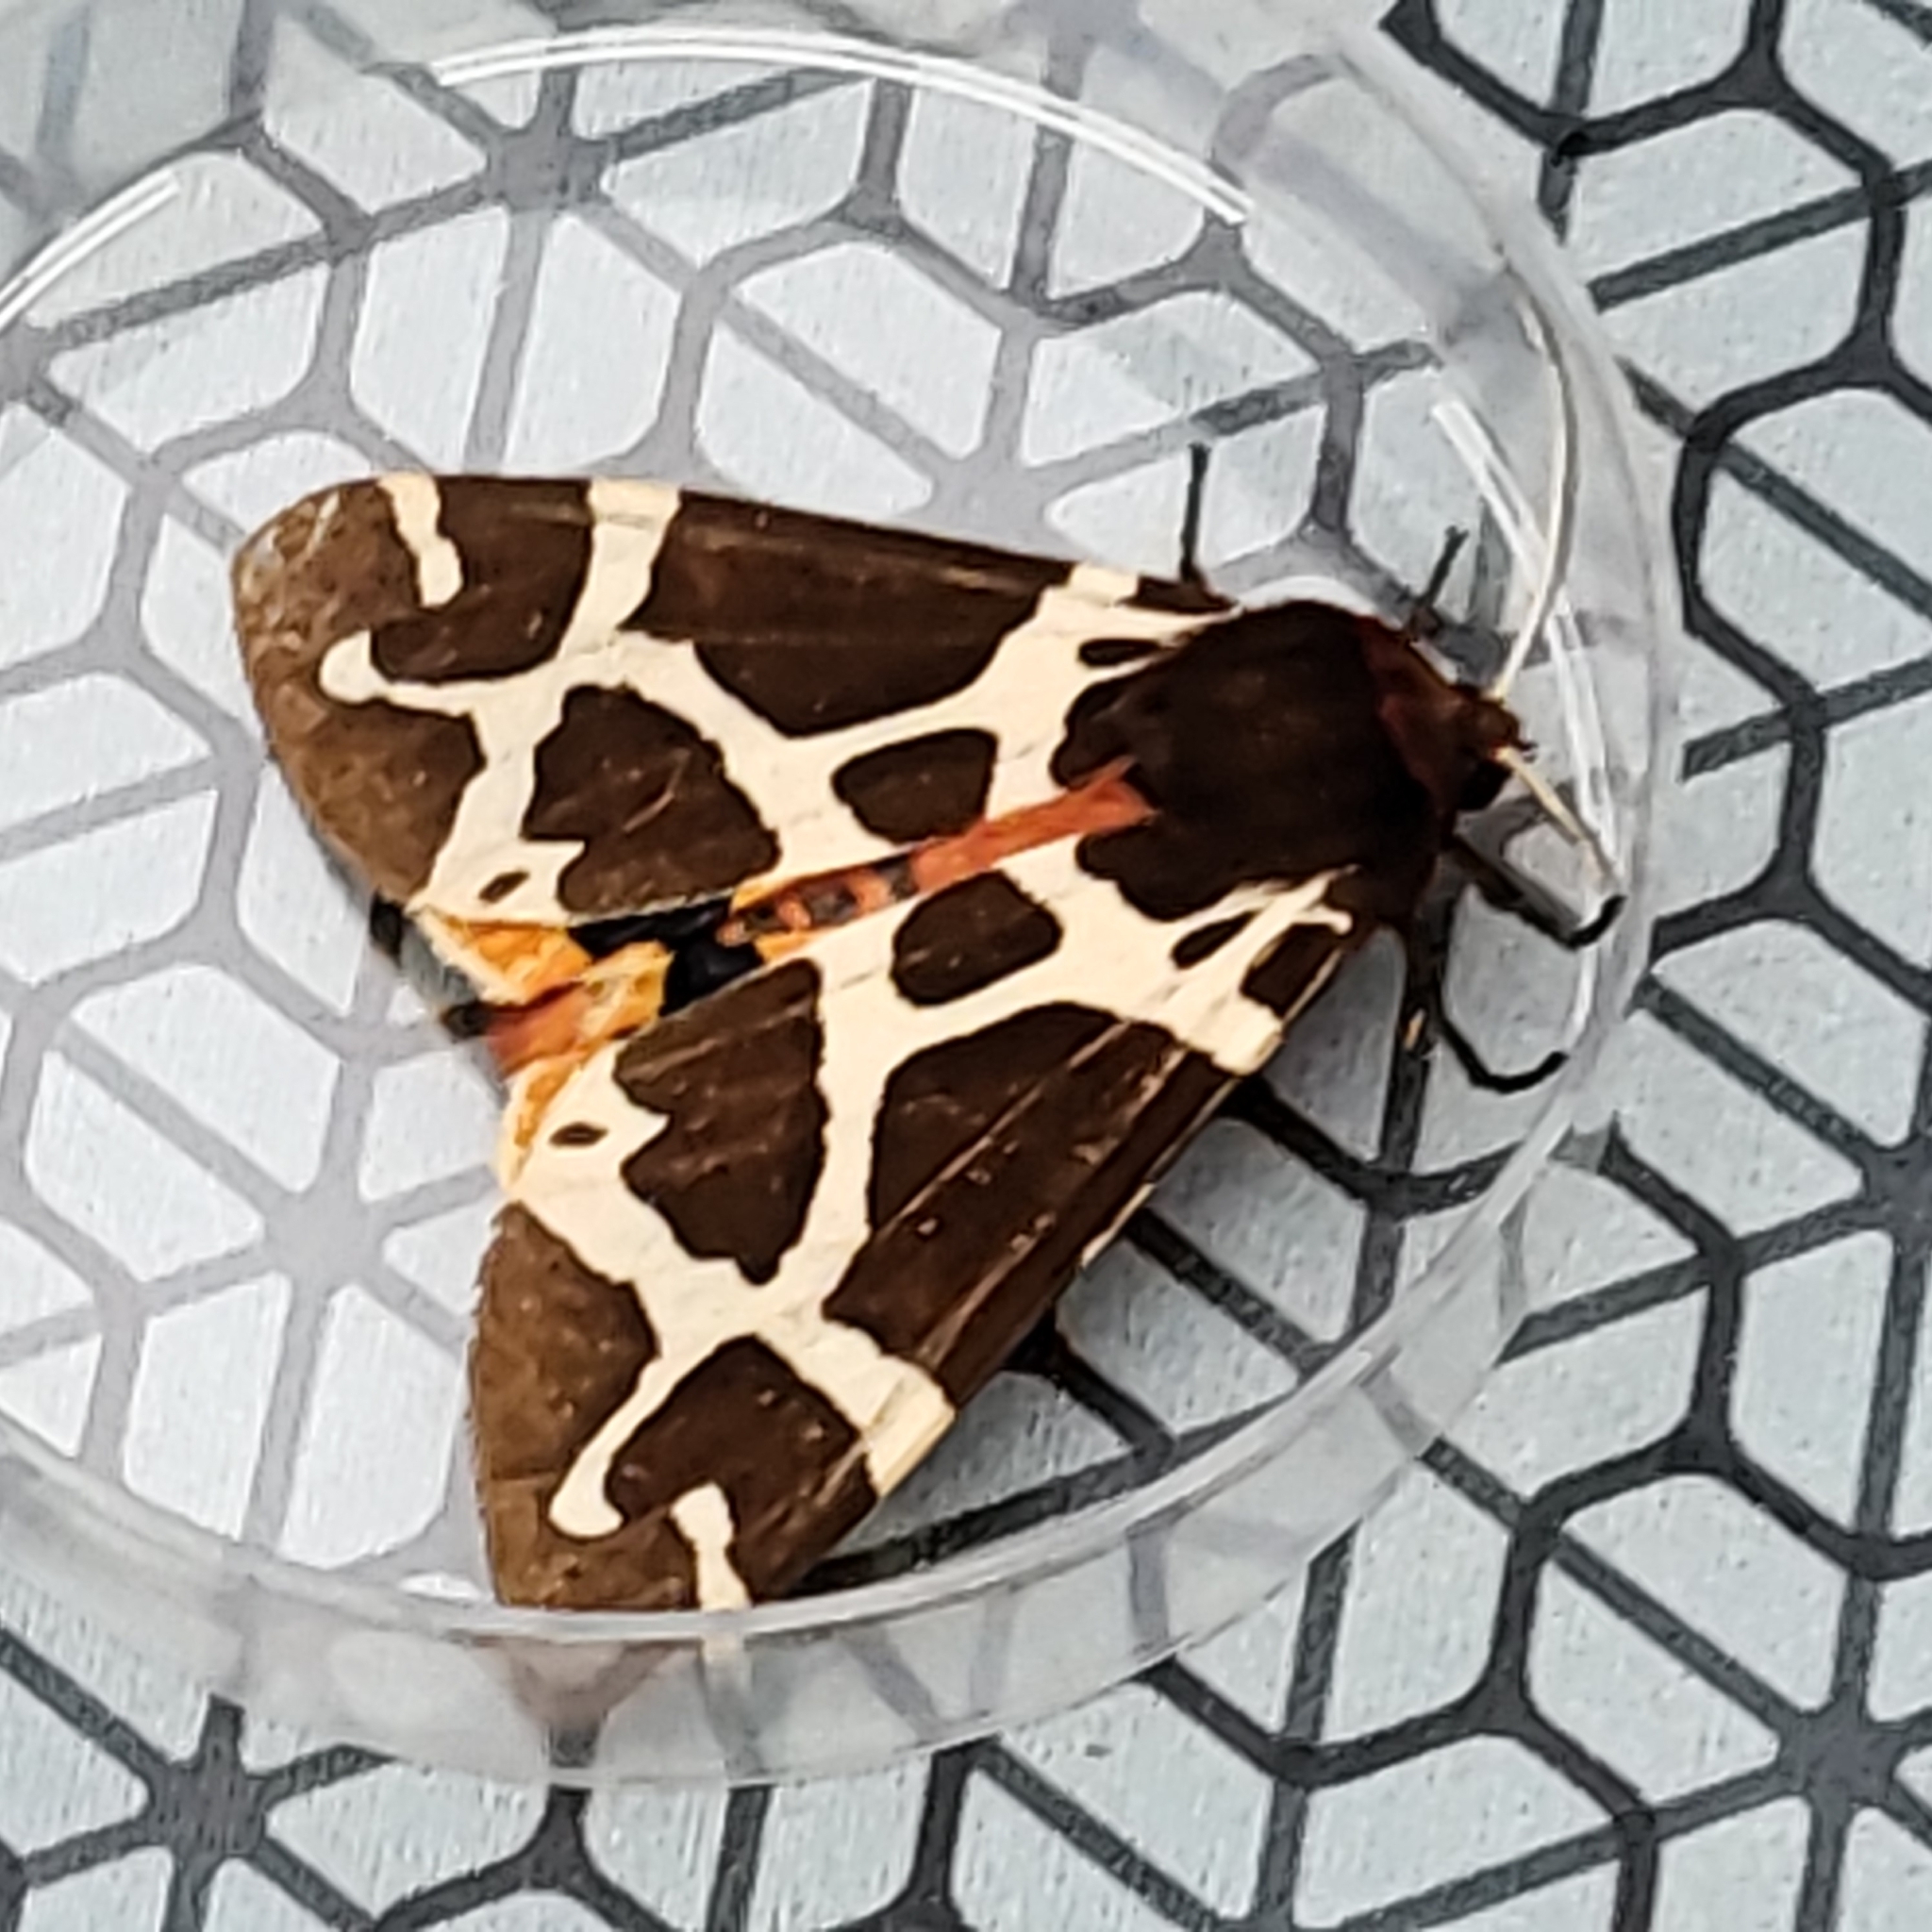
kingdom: Animalia
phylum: Arthropoda
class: Insecta
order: Lepidoptera
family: Erebidae
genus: Arctia
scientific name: Arctia caja
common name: Garden tiger
